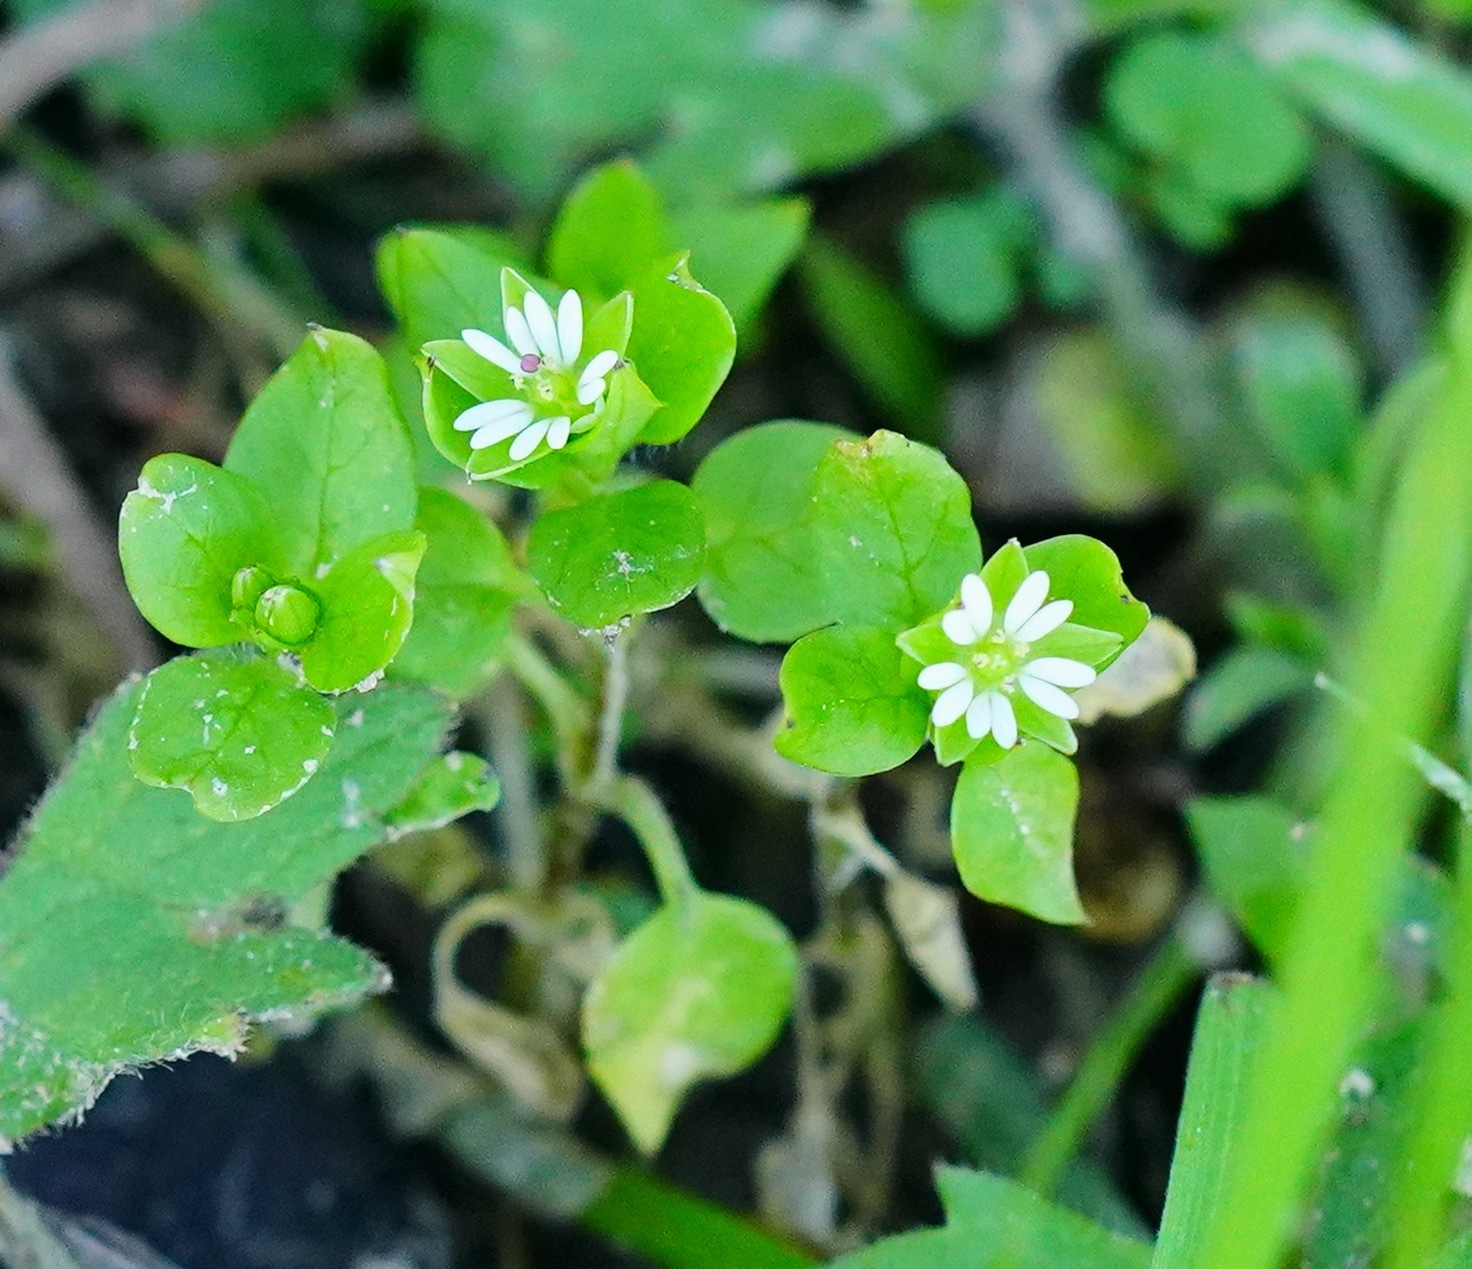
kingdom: Plantae
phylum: Tracheophyta
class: Magnoliopsida
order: Caryophyllales
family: Caryophyllaceae
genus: Stellaria
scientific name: Stellaria media
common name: Common chickweed
